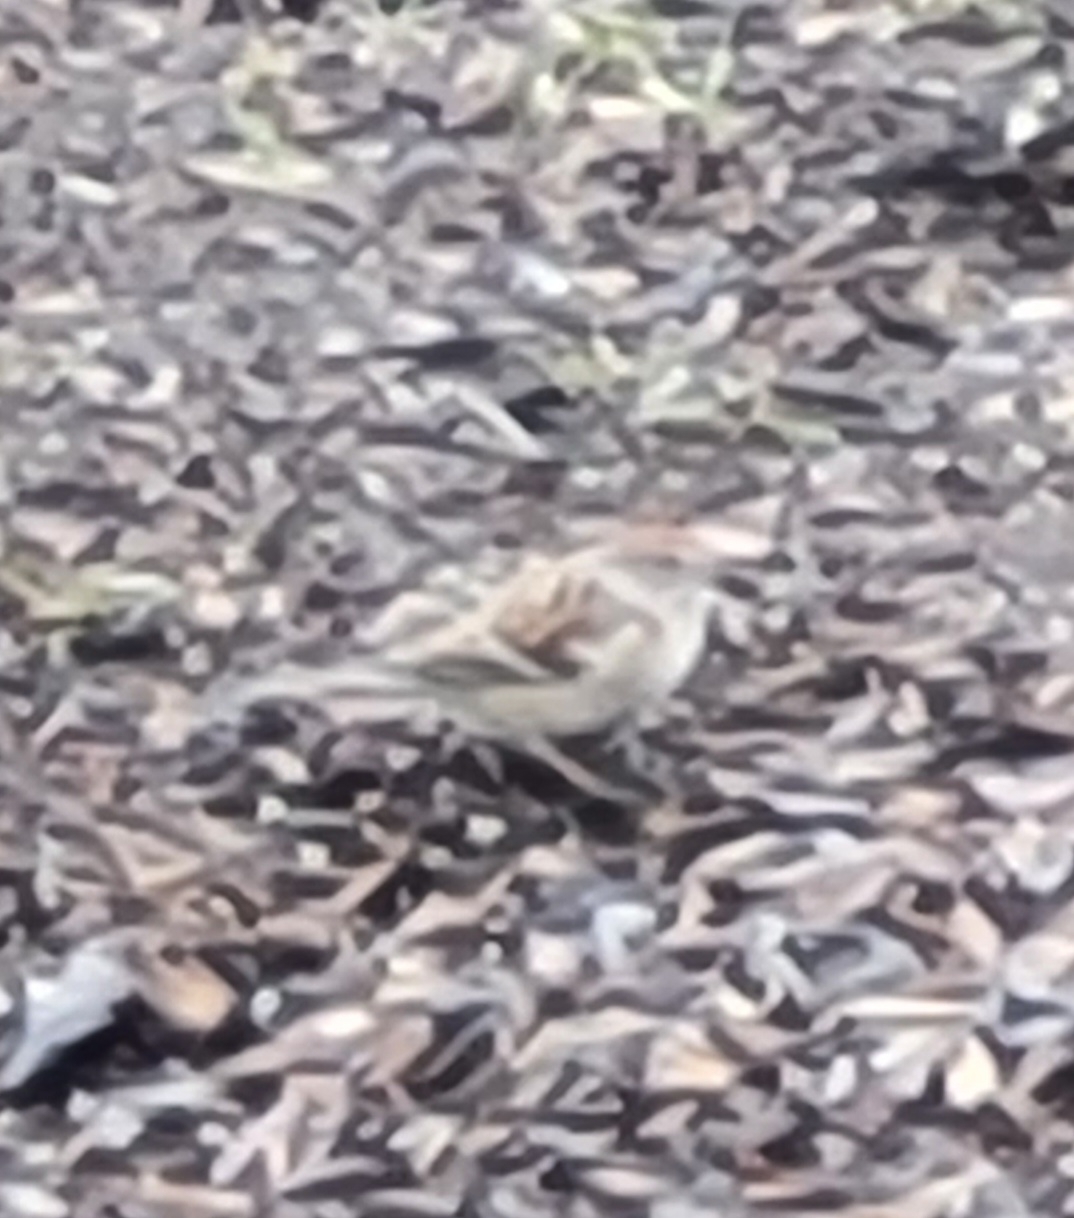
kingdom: Animalia
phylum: Chordata
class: Aves
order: Passeriformes
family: Passerellidae
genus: Spizelloides
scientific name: Spizelloides arborea
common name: American tree sparrow
